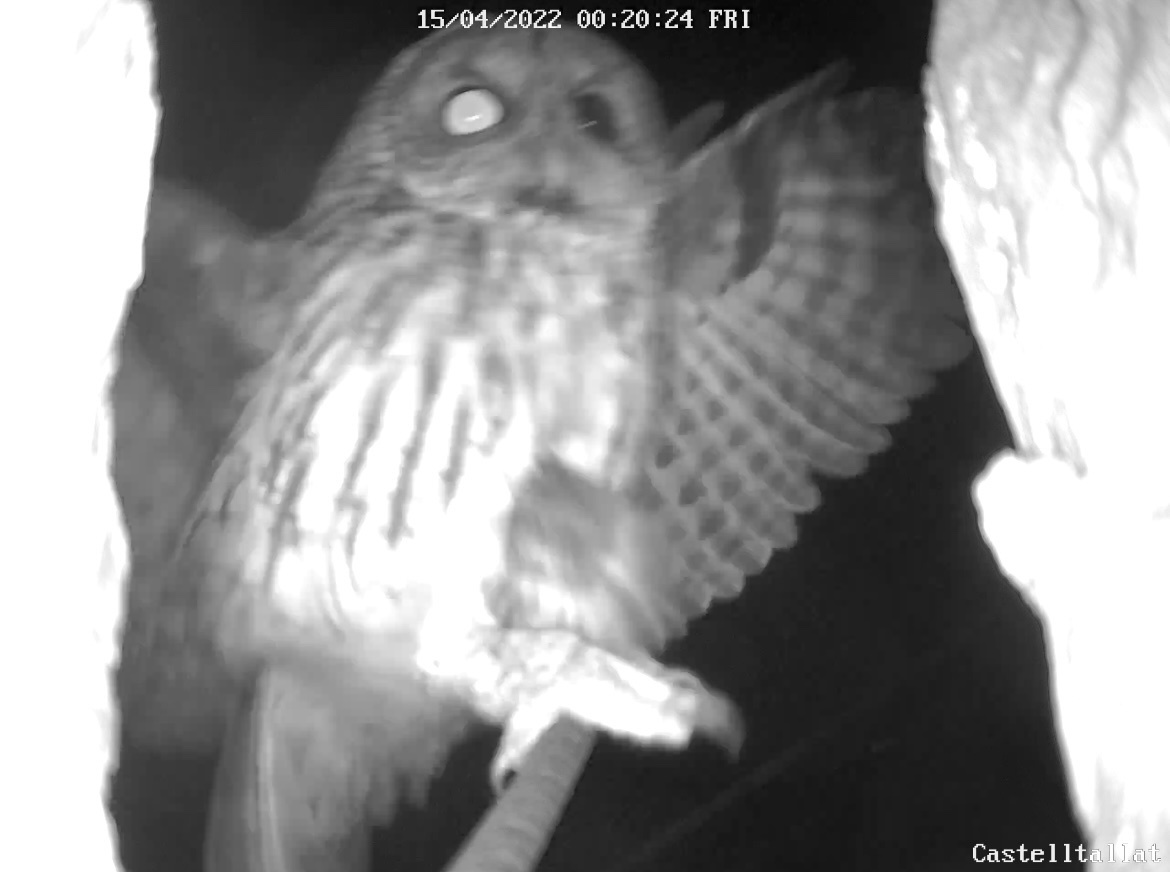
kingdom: Animalia
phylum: Chordata
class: Aves
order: Strigiformes
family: Strigidae
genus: Strix
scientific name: Strix aluco
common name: Tawny owl
